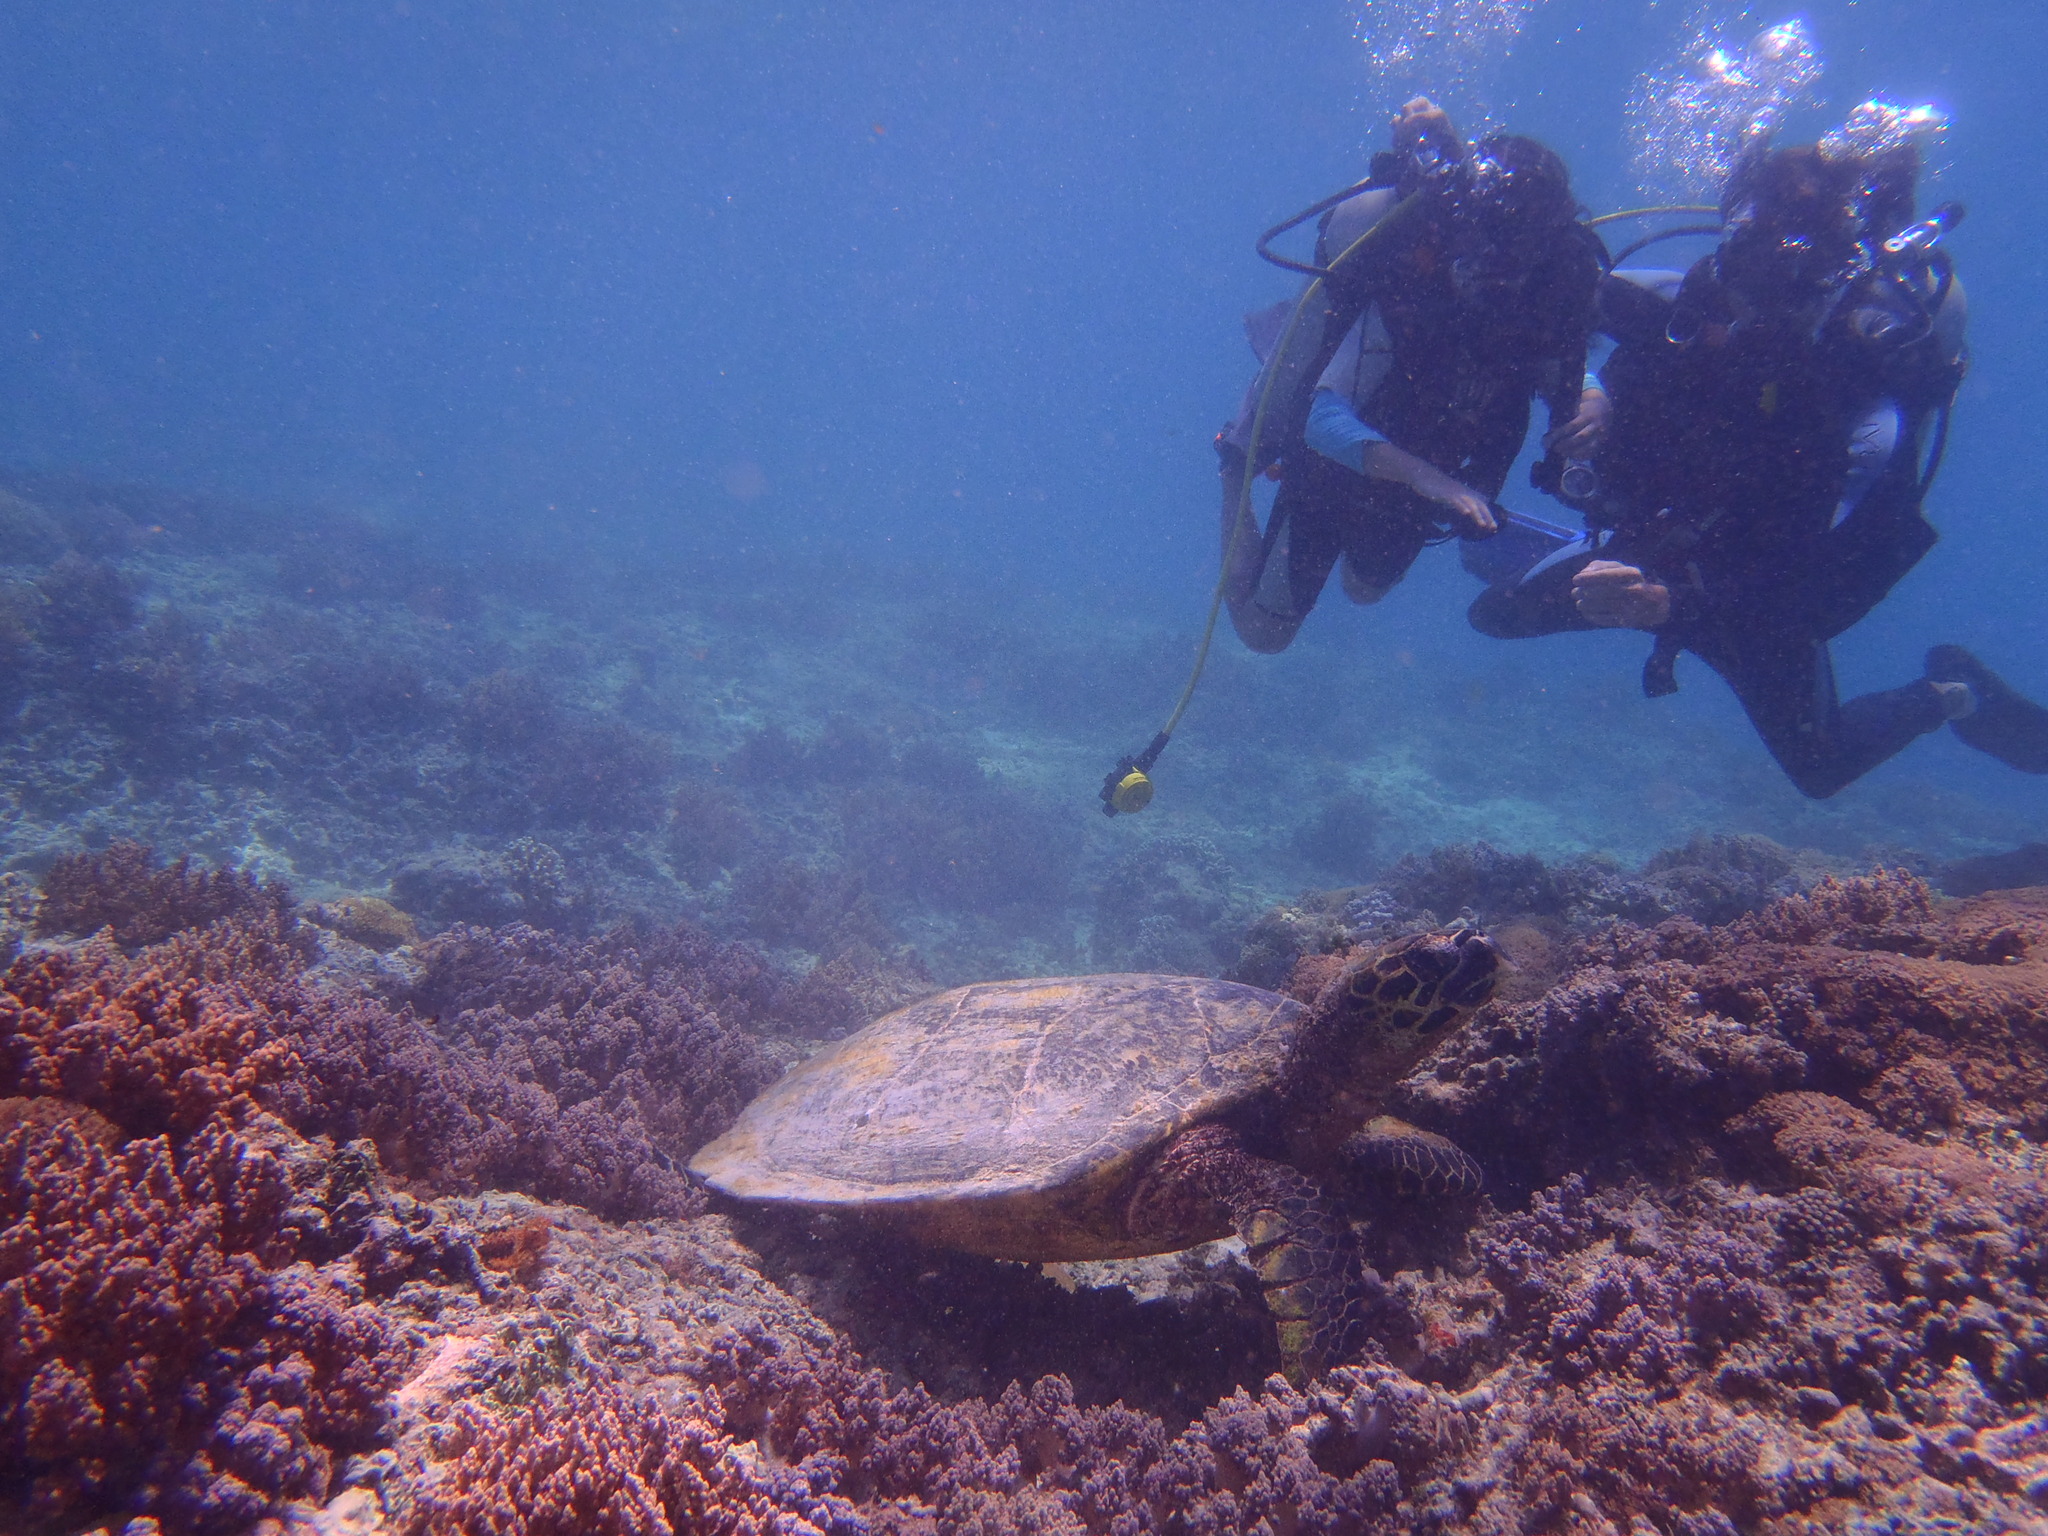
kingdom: Animalia
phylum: Chordata
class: Testudines
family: Cheloniidae
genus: Eretmochelys
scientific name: Eretmochelys imbricata
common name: Hawksbill turtle
